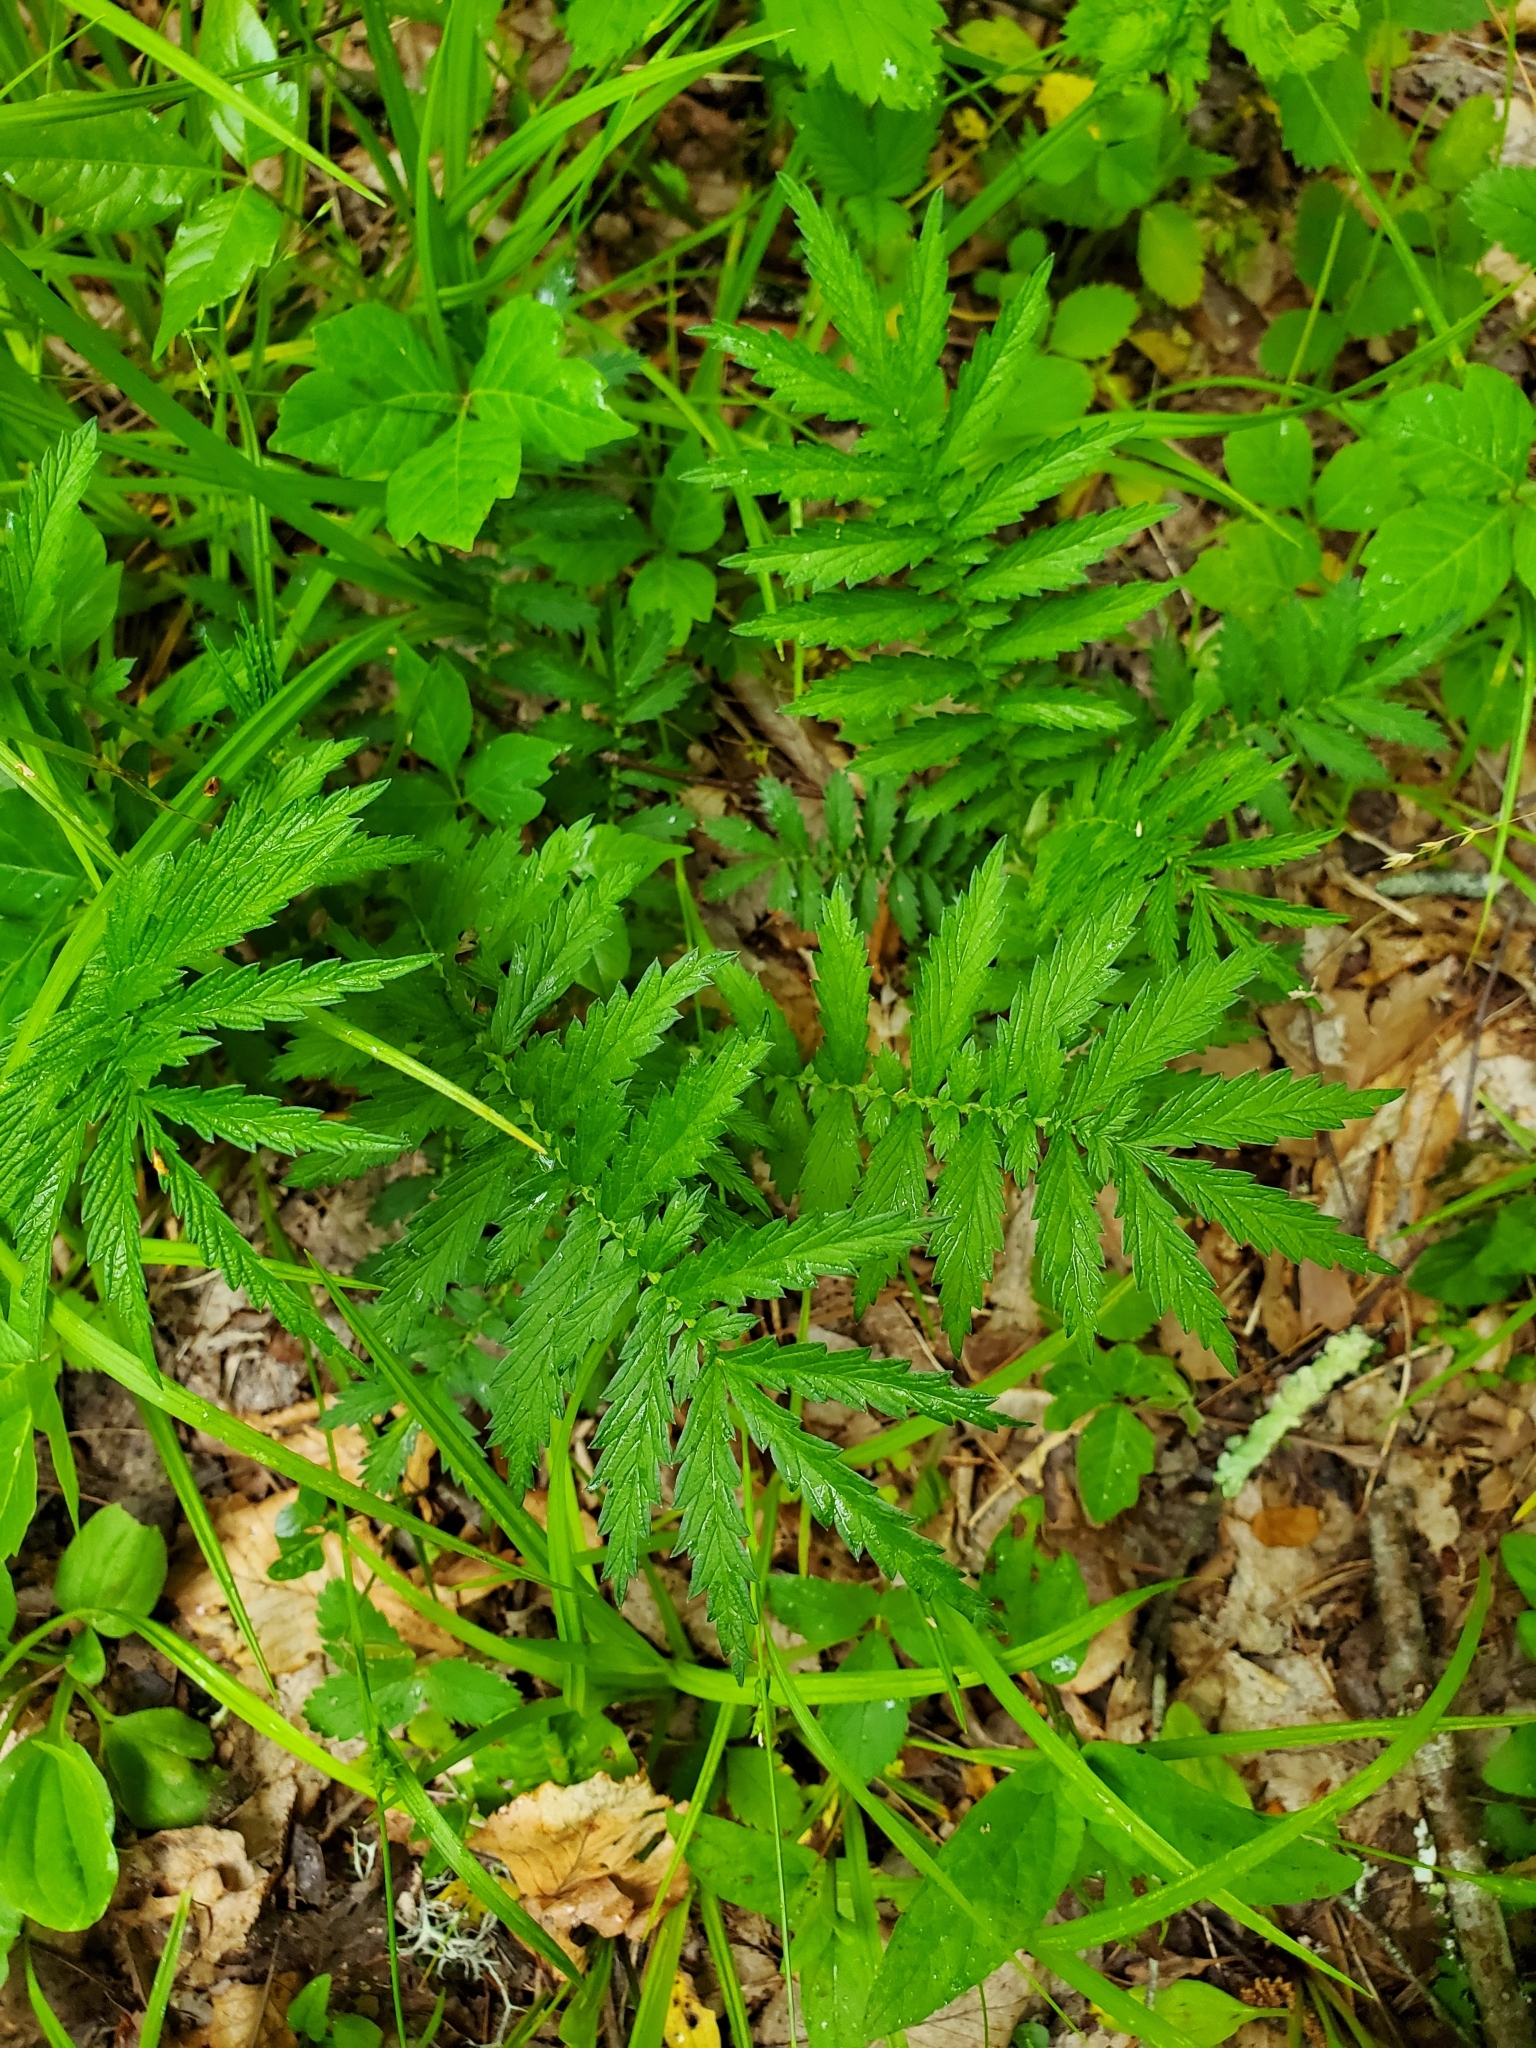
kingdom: Plantae
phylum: Tracheophyta
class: Magnoliopsida
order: Rosales
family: Rosaceae
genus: Agrimonia
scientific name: Agrimonia parviflora
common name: Harvest-lice
